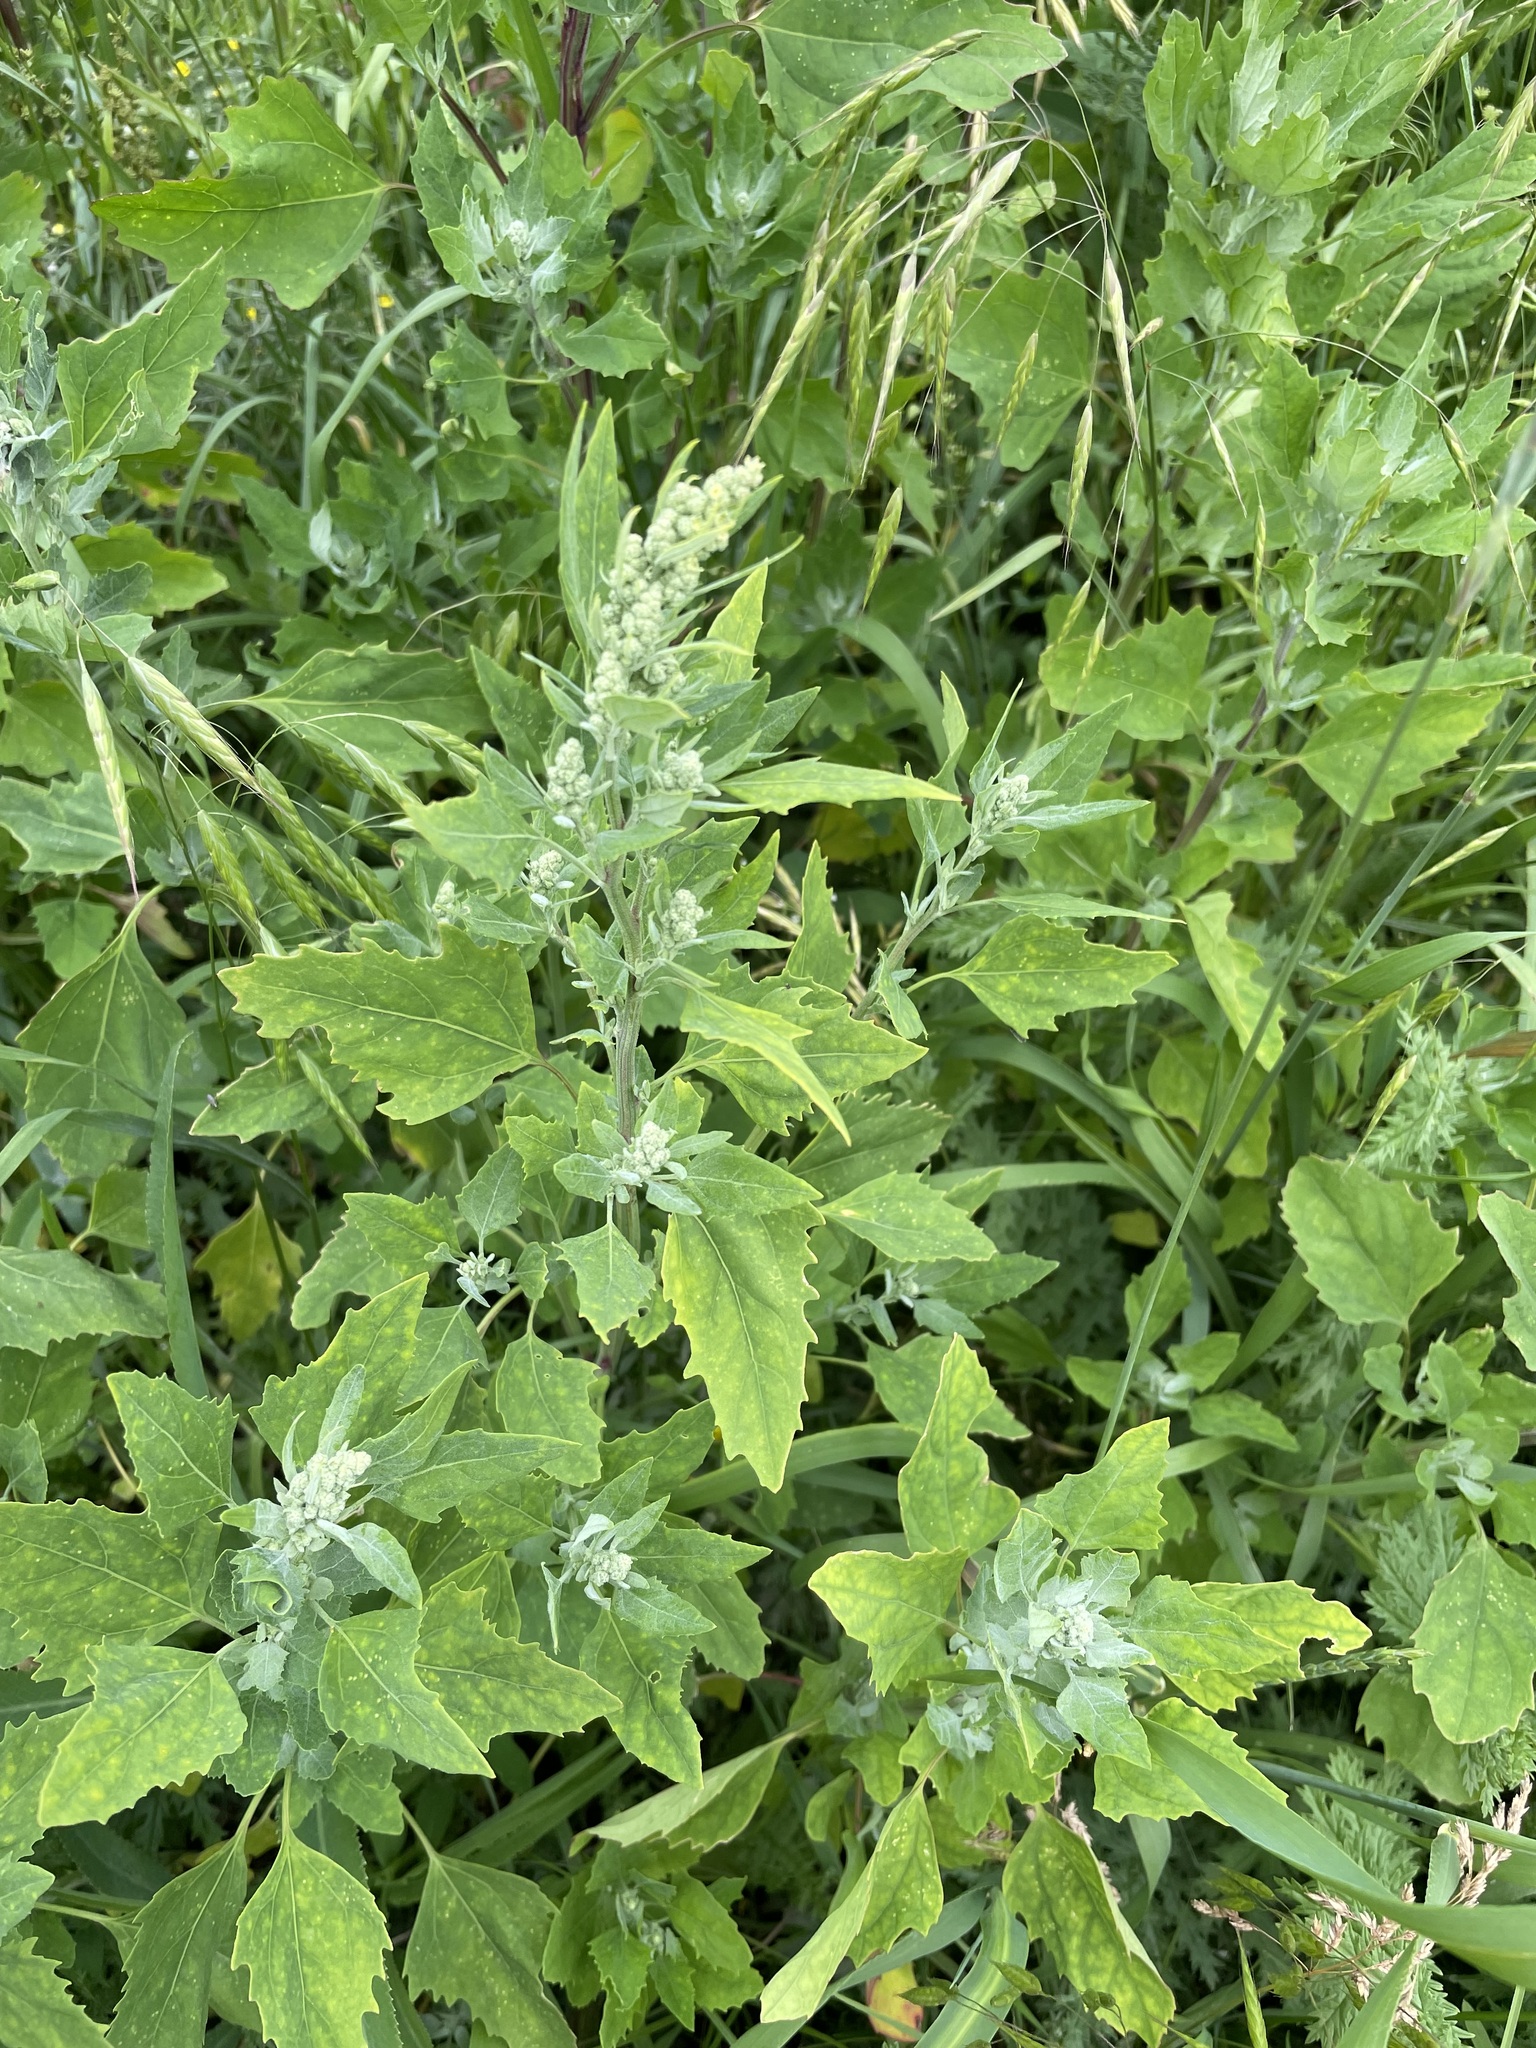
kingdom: Plantae
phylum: Tracheophyta
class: Magnoliopsida
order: Caryophyllales
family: Amaranthaceae
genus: Chenopodium
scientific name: Chenopodium album
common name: Fat-hen
